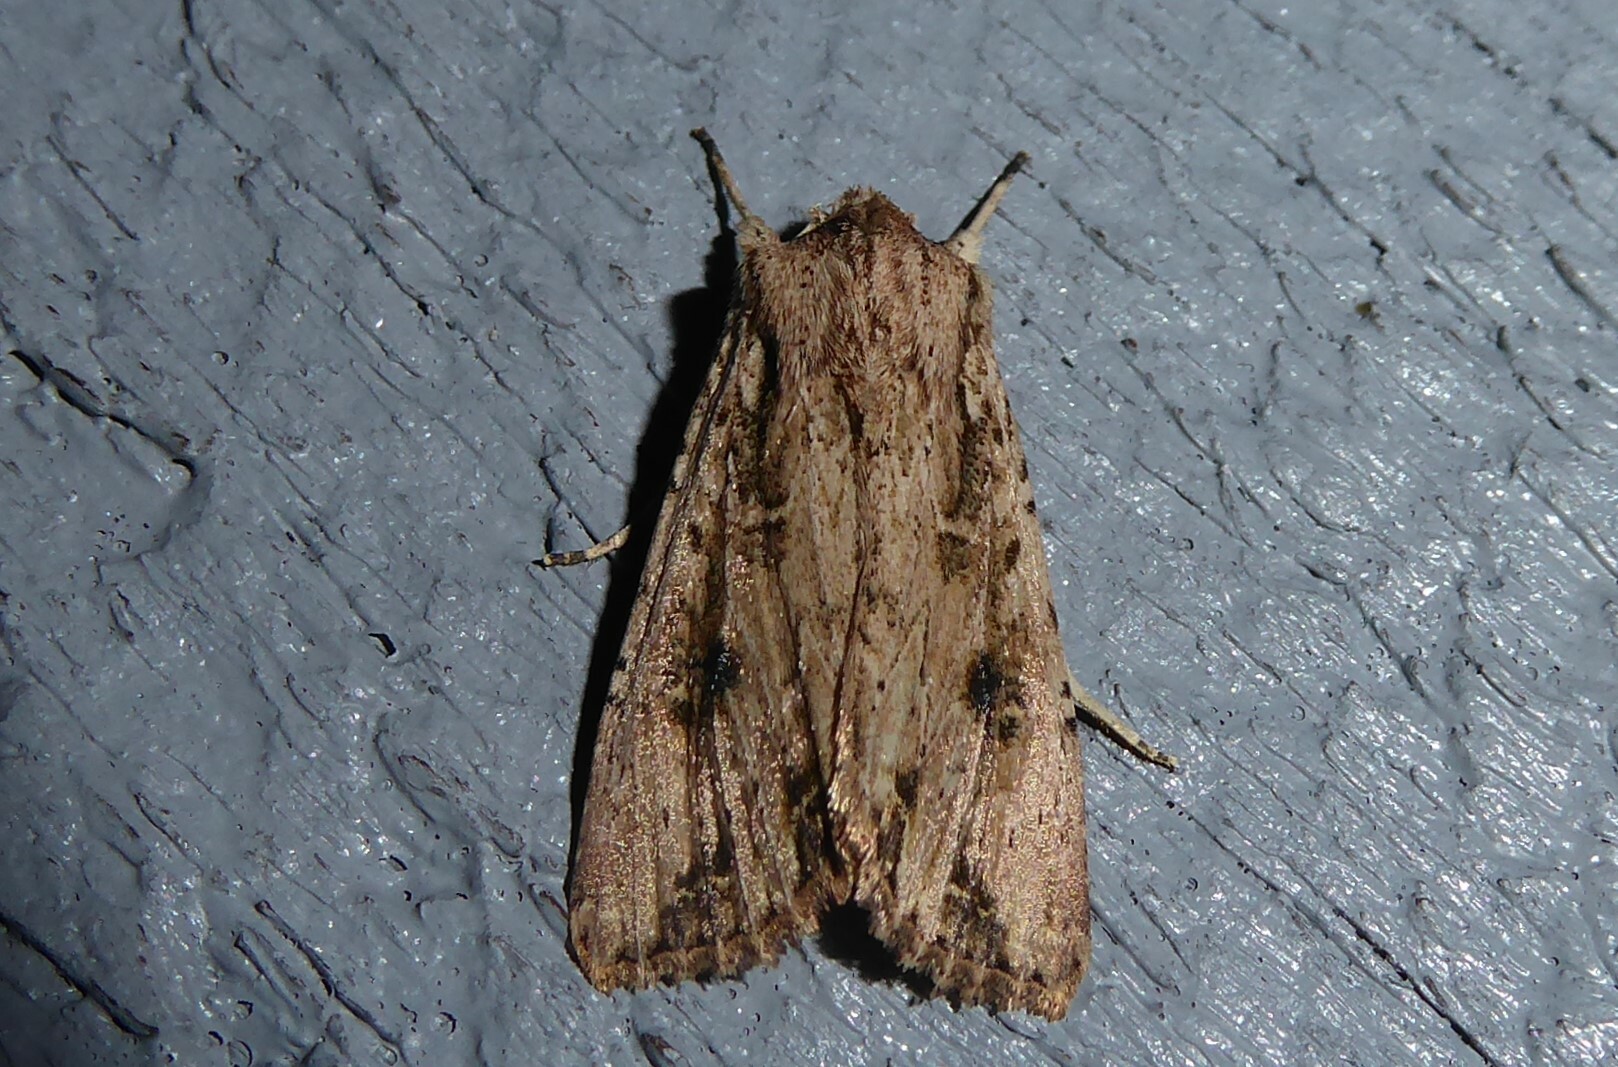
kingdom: Animalia
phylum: Arthropoda
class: Insecta
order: Lepidoptera
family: Noctuidae
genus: Ichneutica
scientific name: Ichneutica lignana
